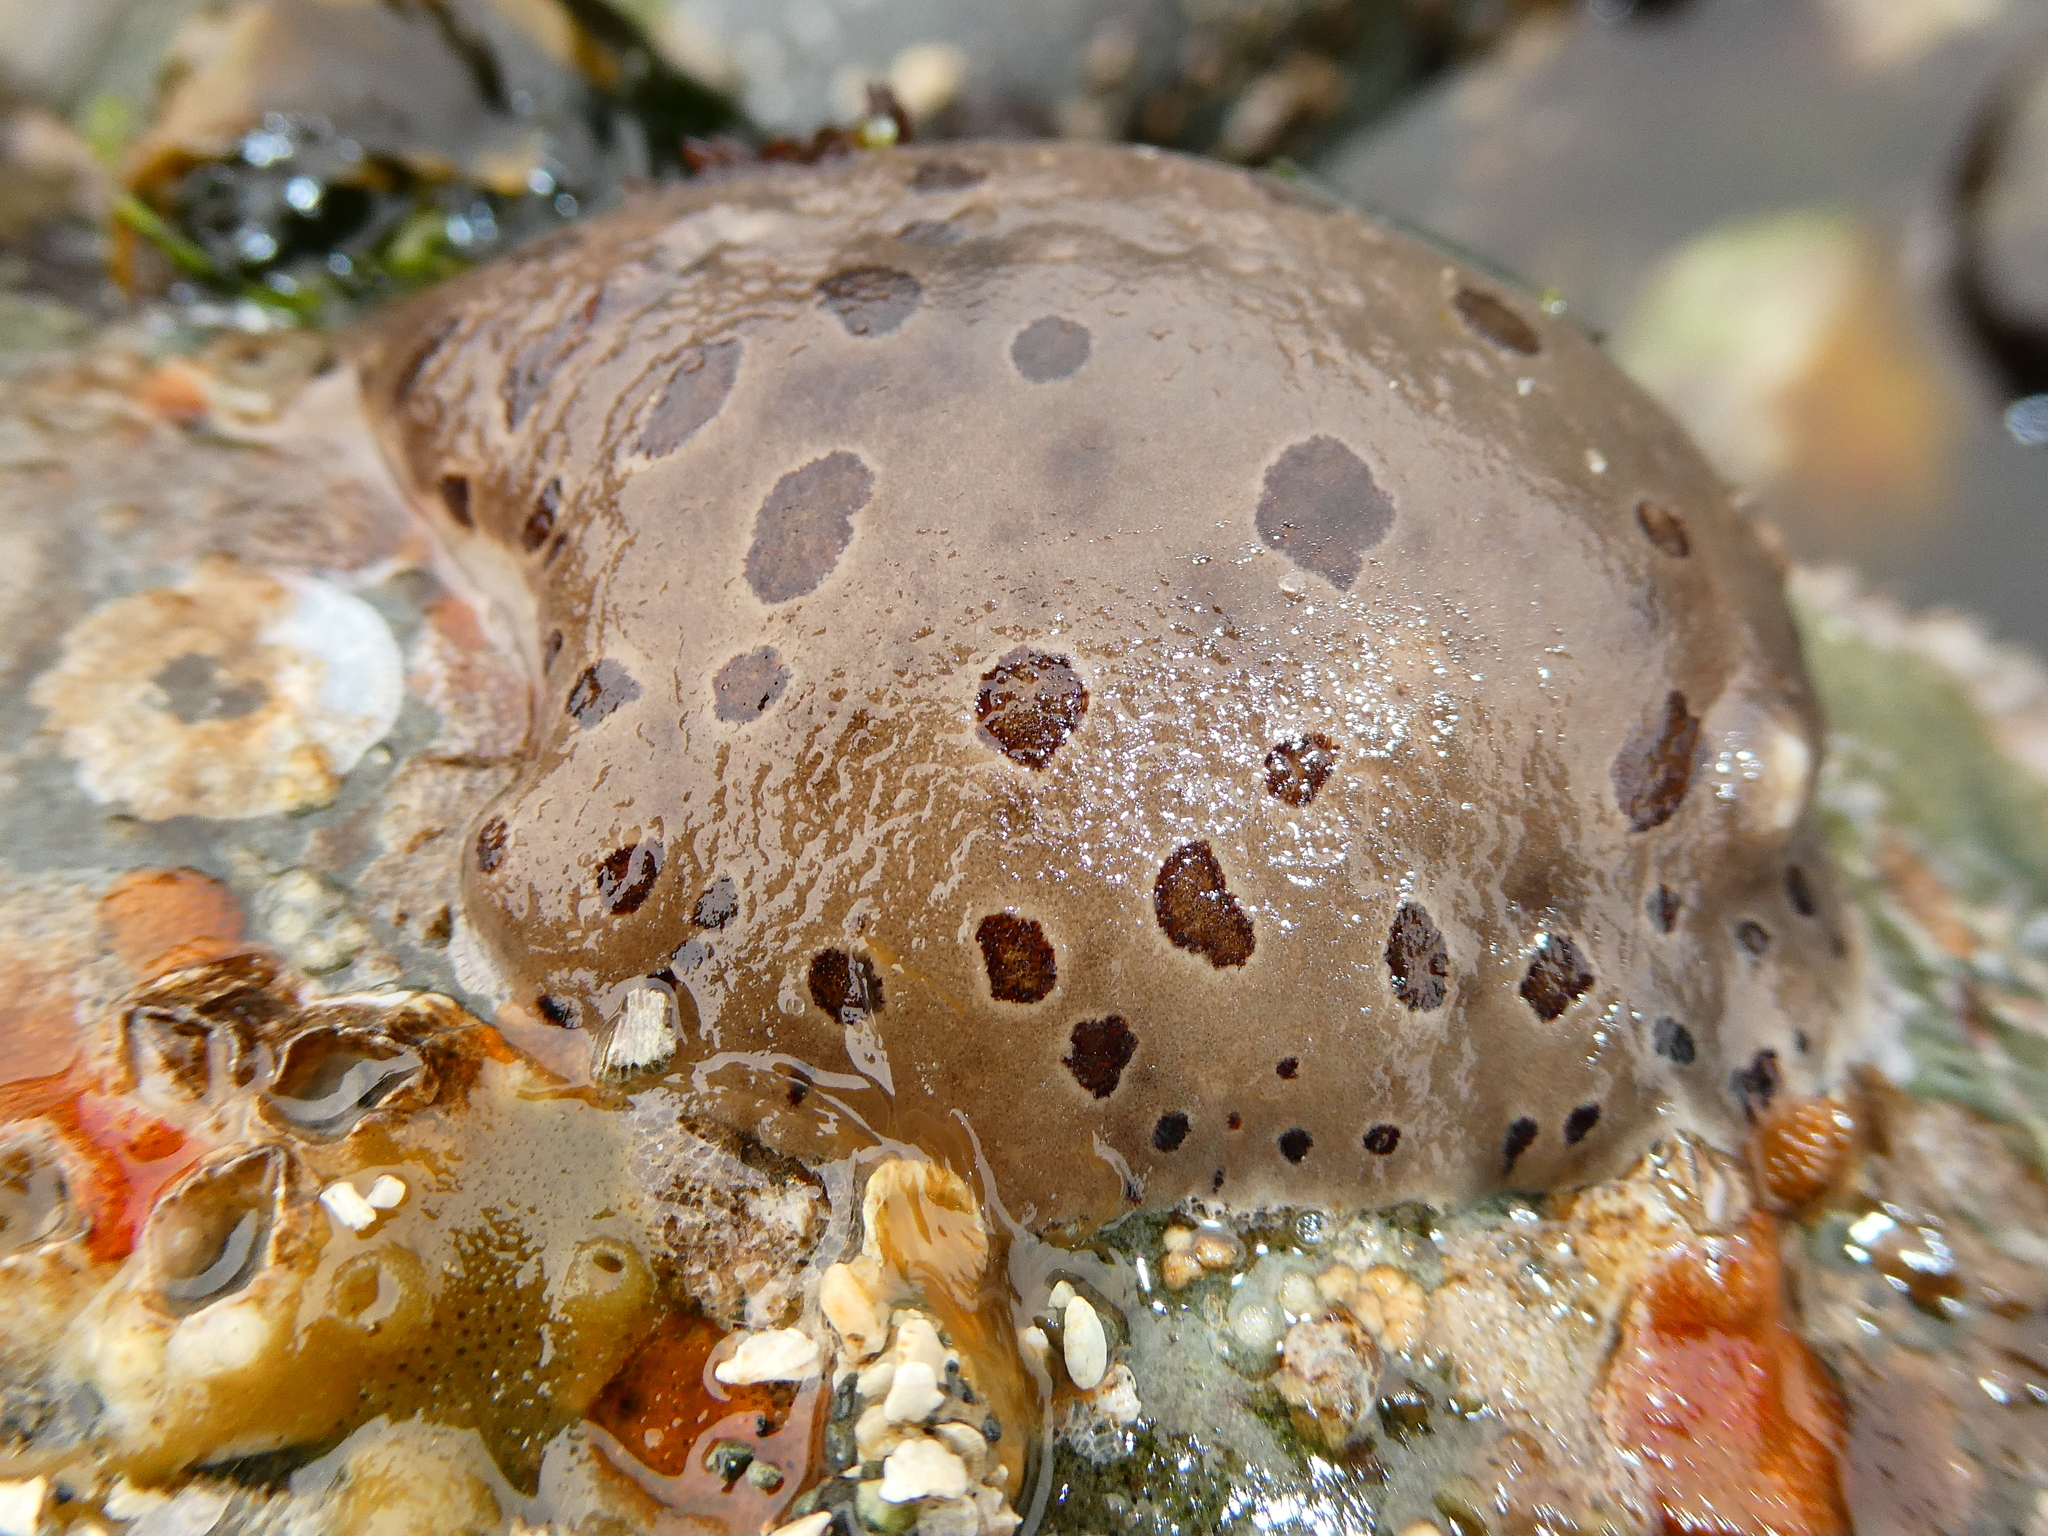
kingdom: Animalia
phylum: Mollusca
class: Gastropoda
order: Nudibranchia
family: Discodorididae
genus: Diaulula
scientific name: Diaulula odonoghuei
